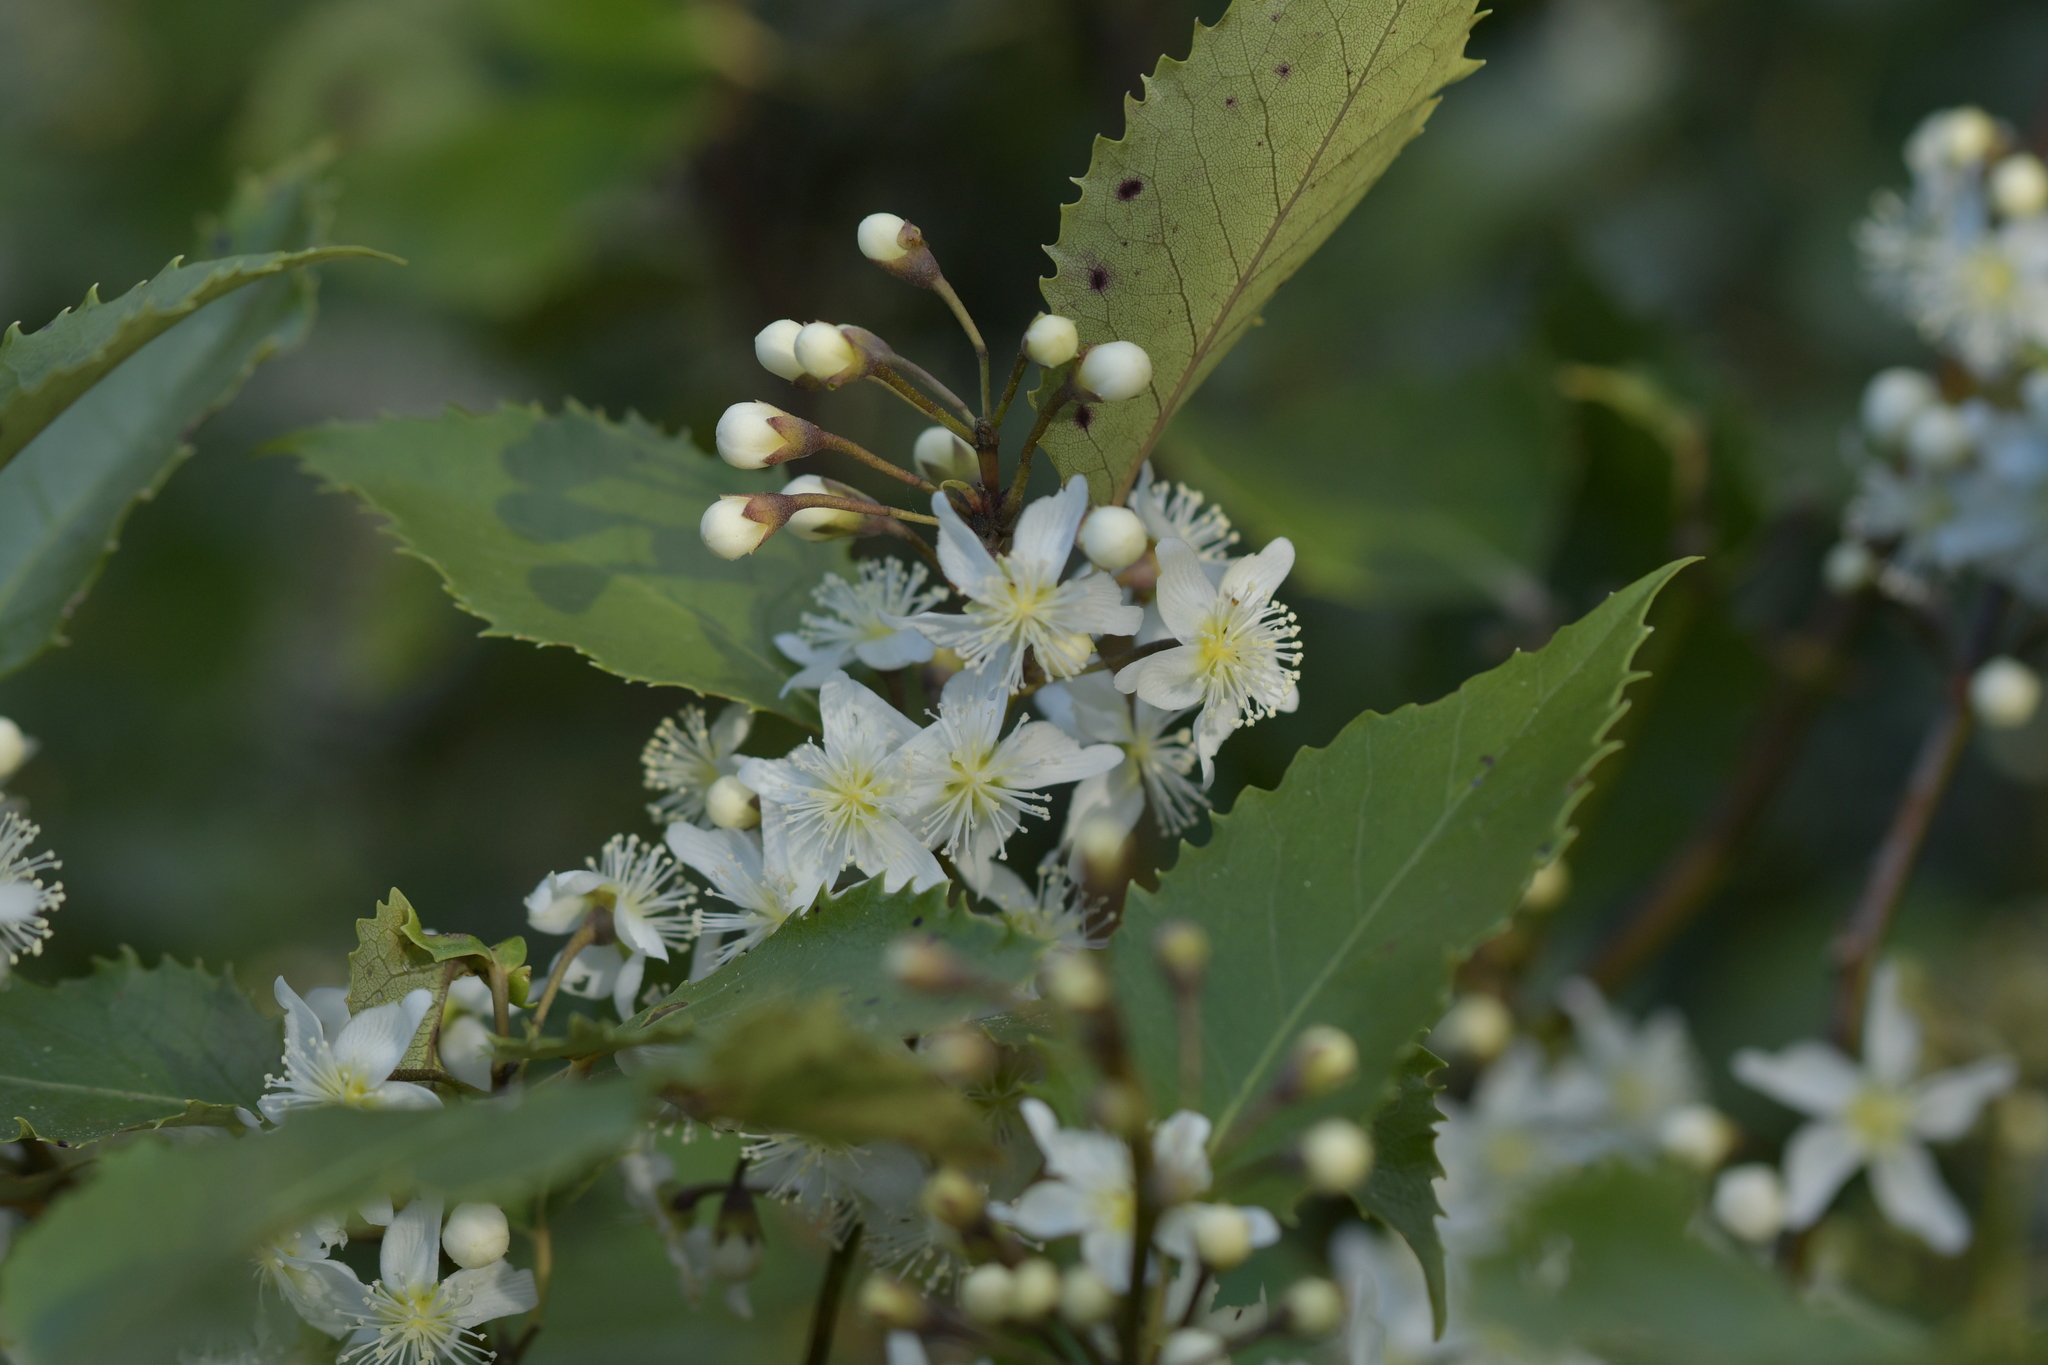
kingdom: Plantae
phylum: Tracheophyta
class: Magnoliopsida
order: Malvales
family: Malvaceae
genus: Hoheria
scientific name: Hoheria populnea
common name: Lacebark
